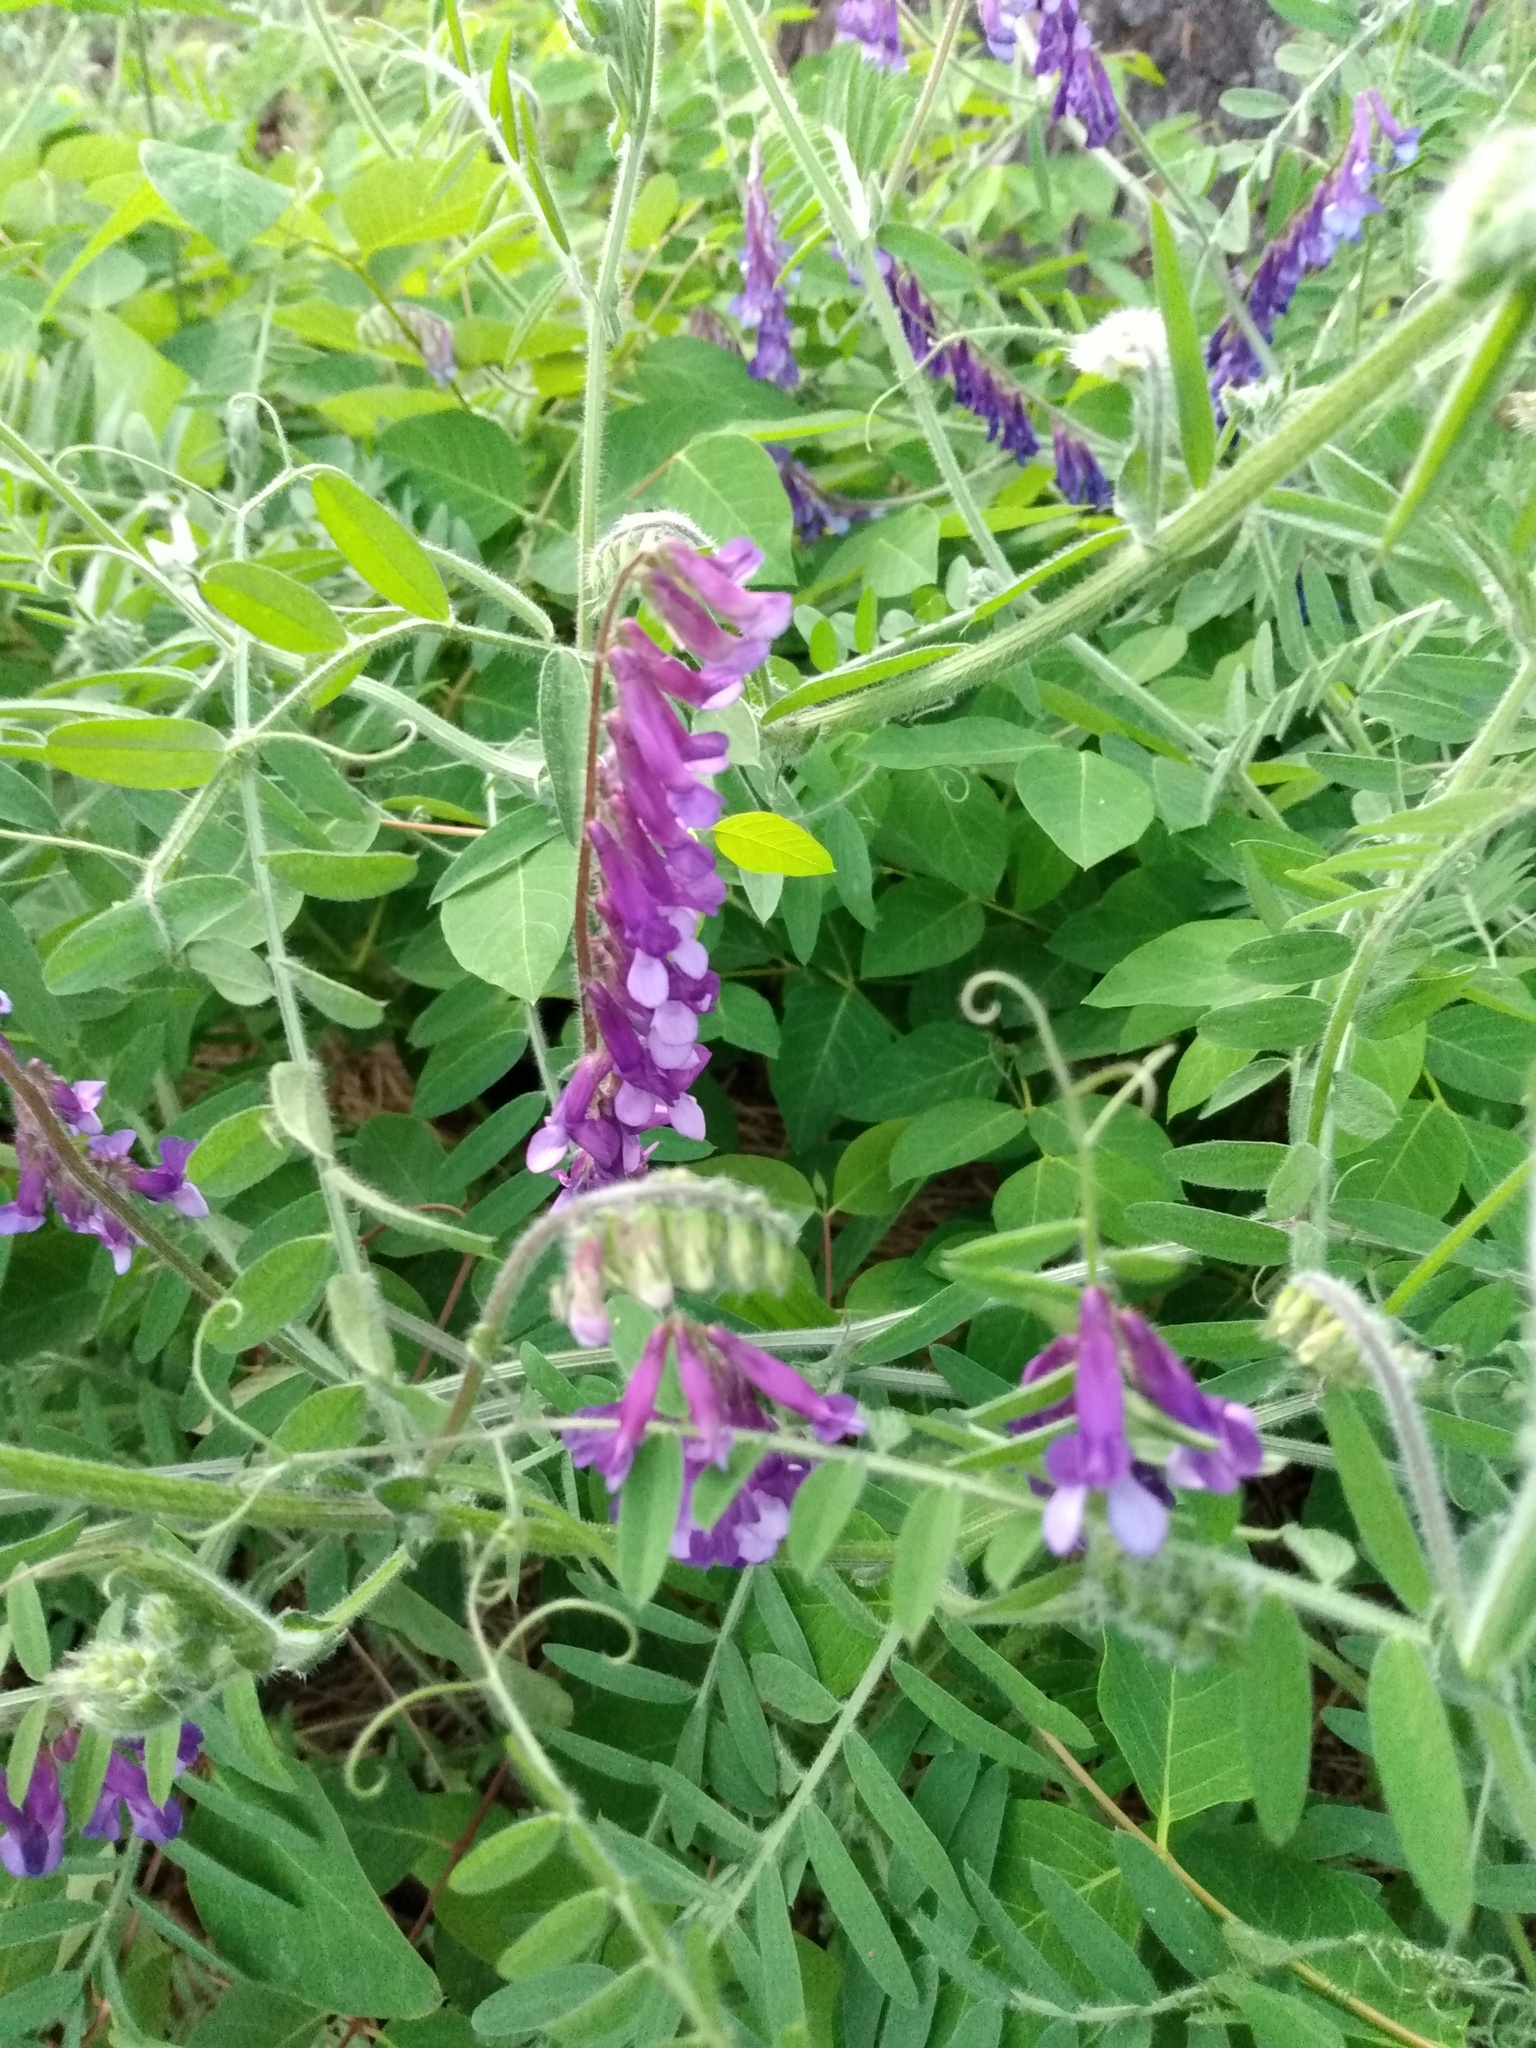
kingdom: Plantae
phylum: Tracheophyta
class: Magnoliopsida
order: Fabales
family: Fabaceae
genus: Vicia
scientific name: Vicia villosa
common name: Fodder vetch
